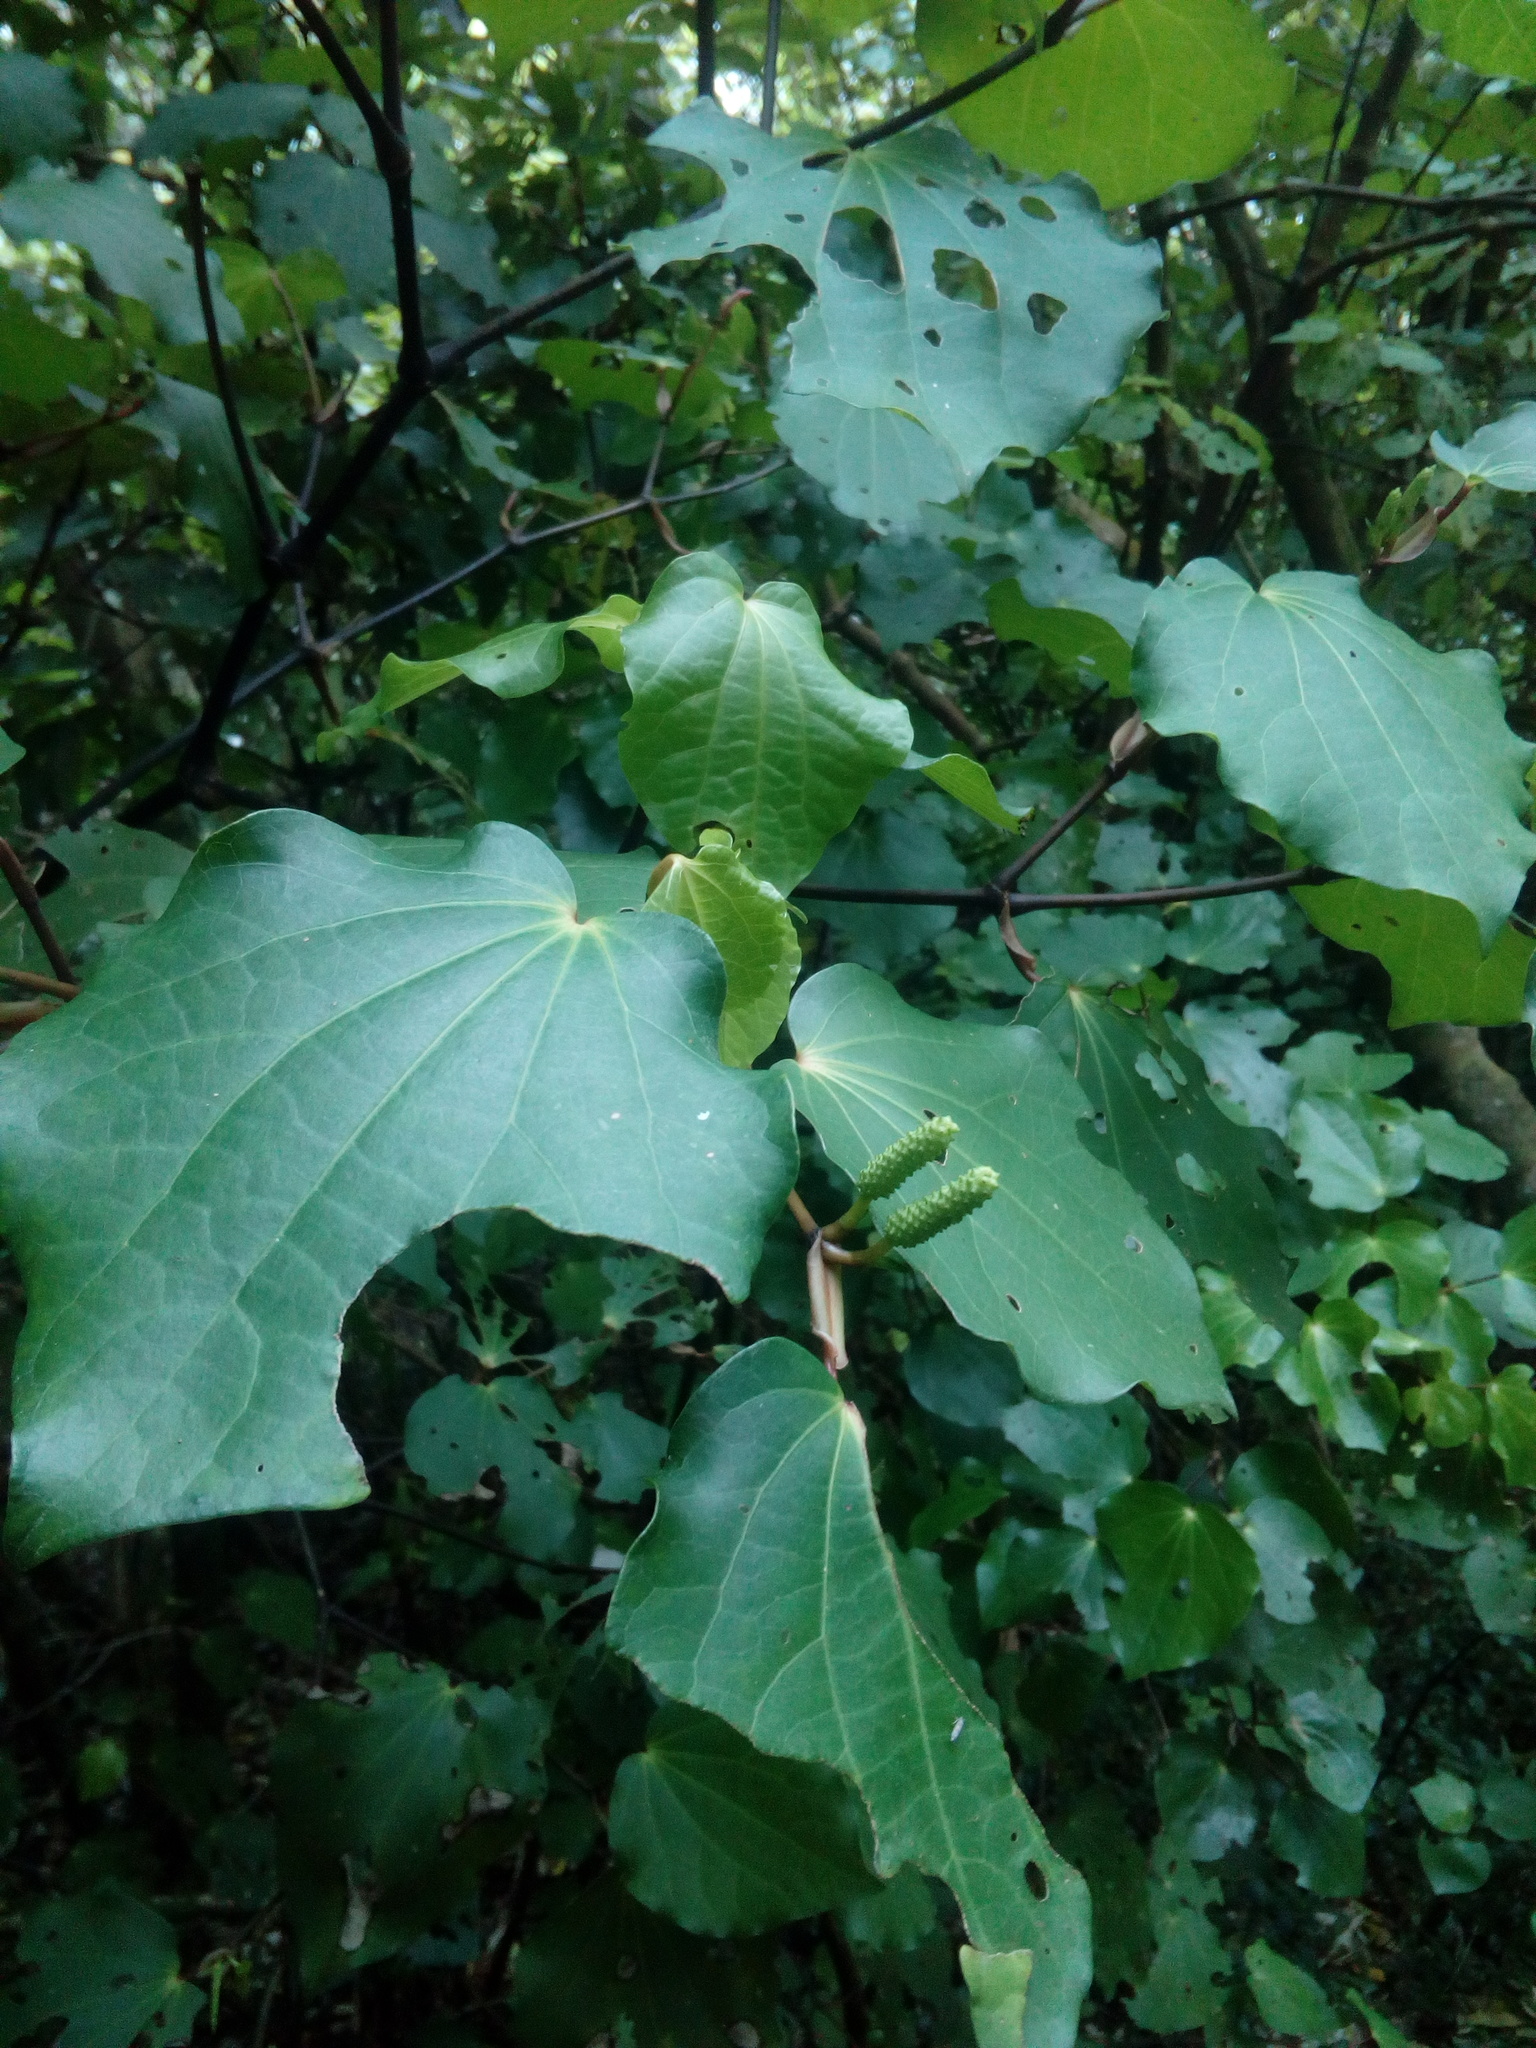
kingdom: Plantae
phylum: Tracheophyta
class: Magnoliopsida
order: Piperales
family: Piperaceae
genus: Macropiper
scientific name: Macropiper excelsum
